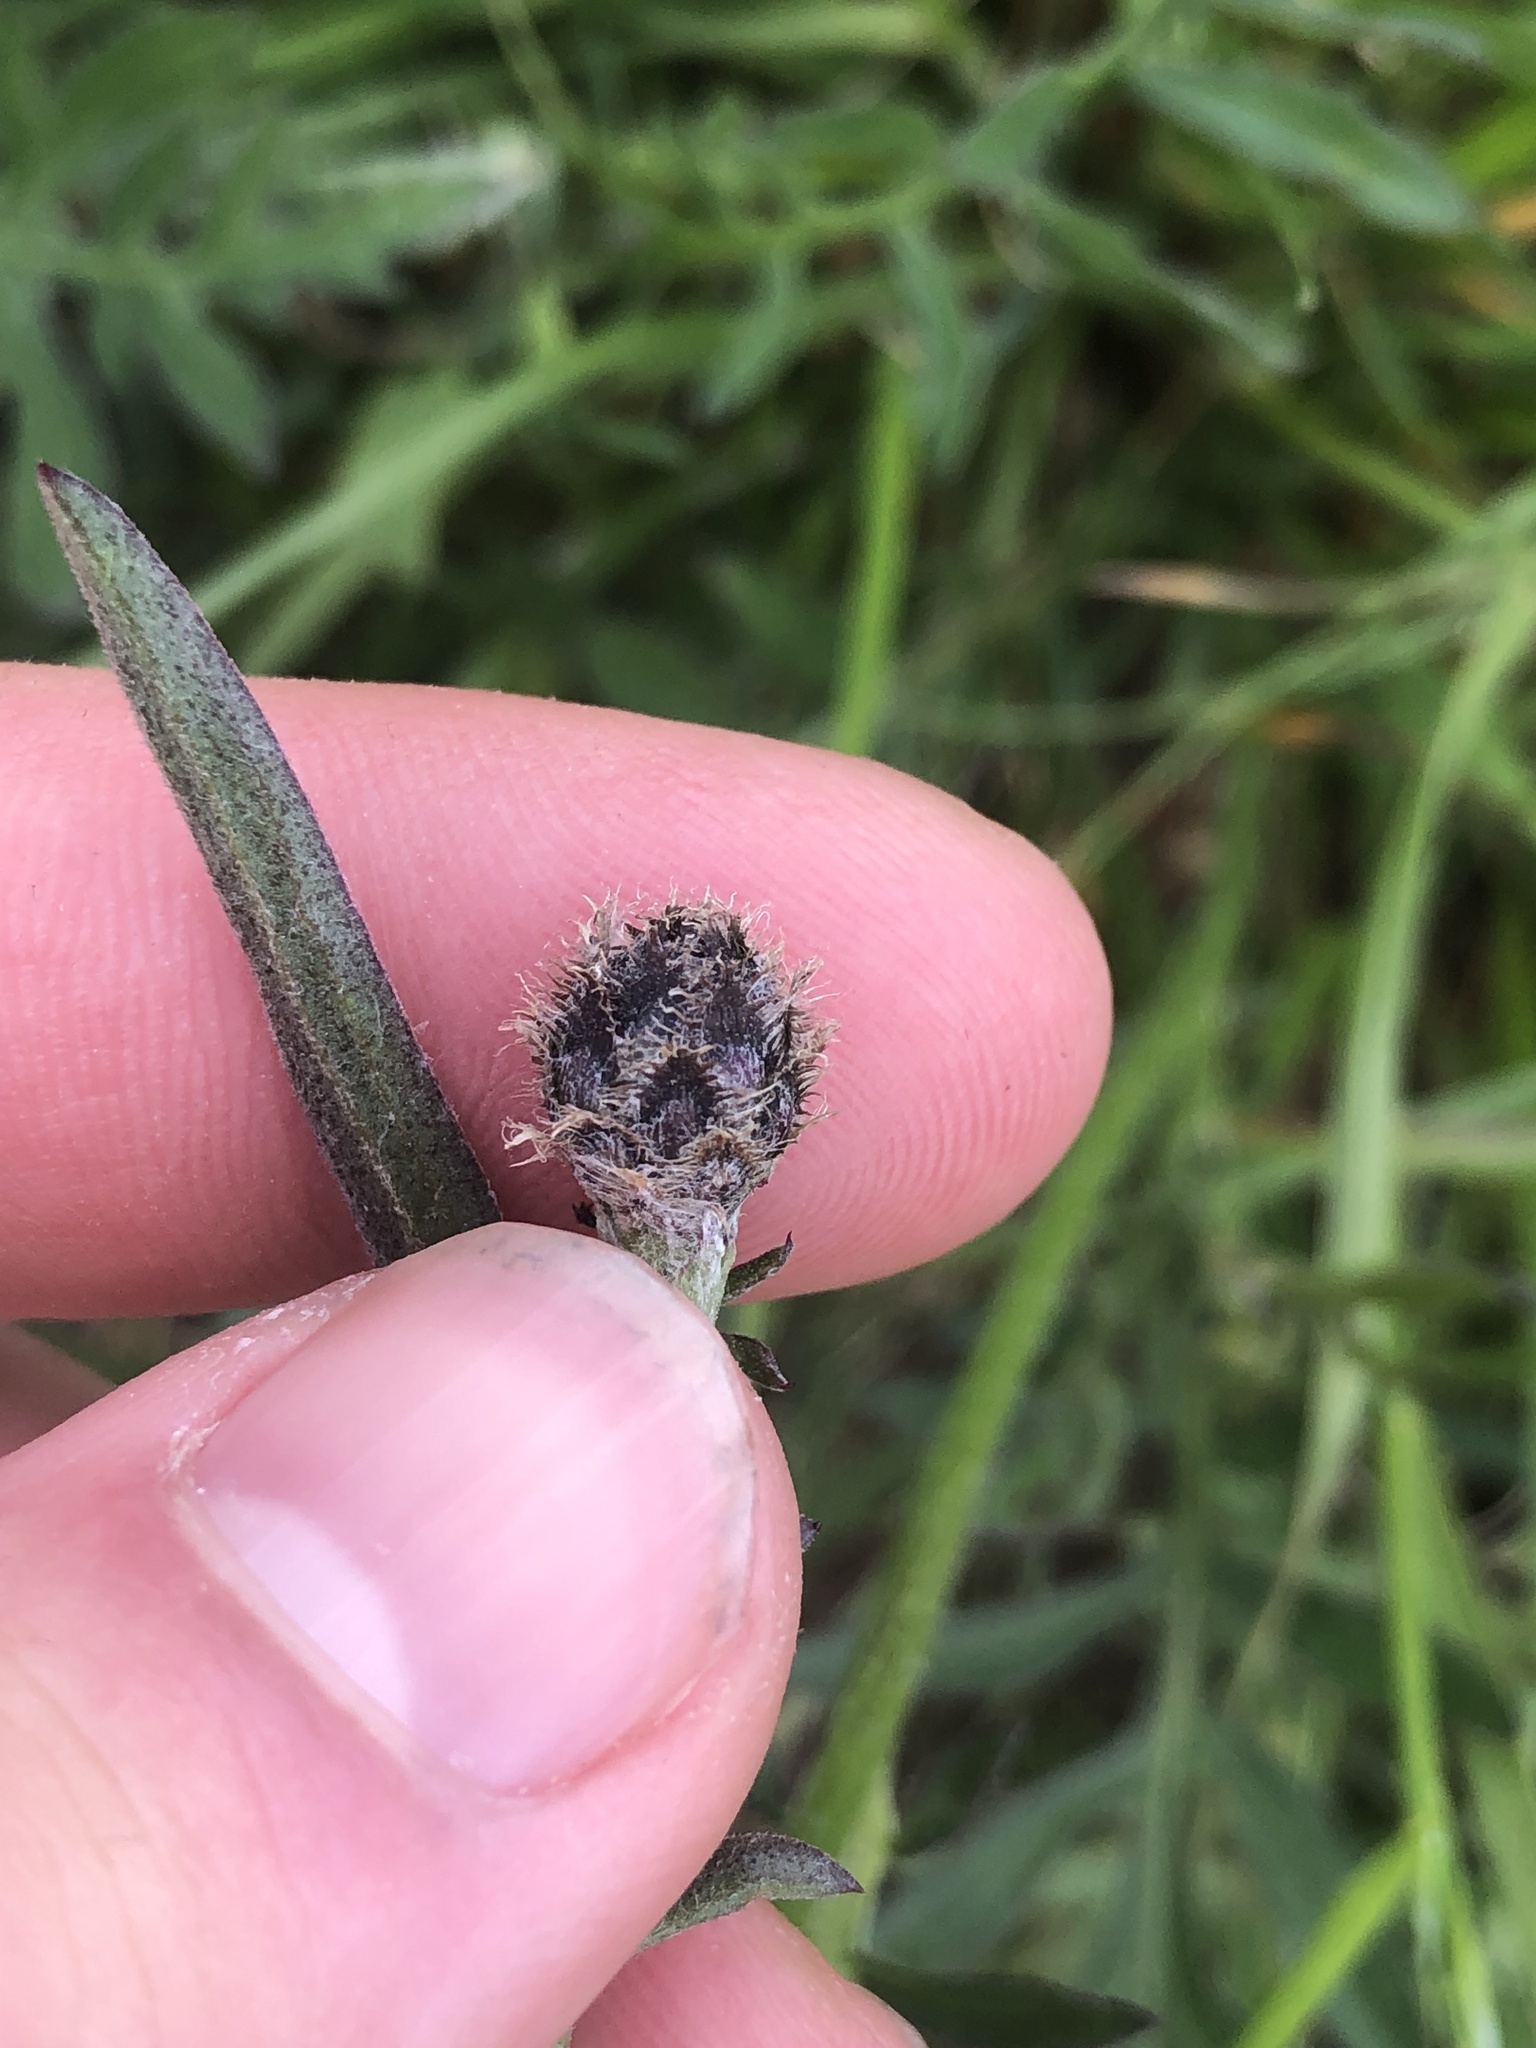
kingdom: Plantae
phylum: Tracheophyta
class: Magnoliopsida
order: Asterales
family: Asteraceae
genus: Centaurea
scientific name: Centaurea scabiosa
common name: Greater knapweed
